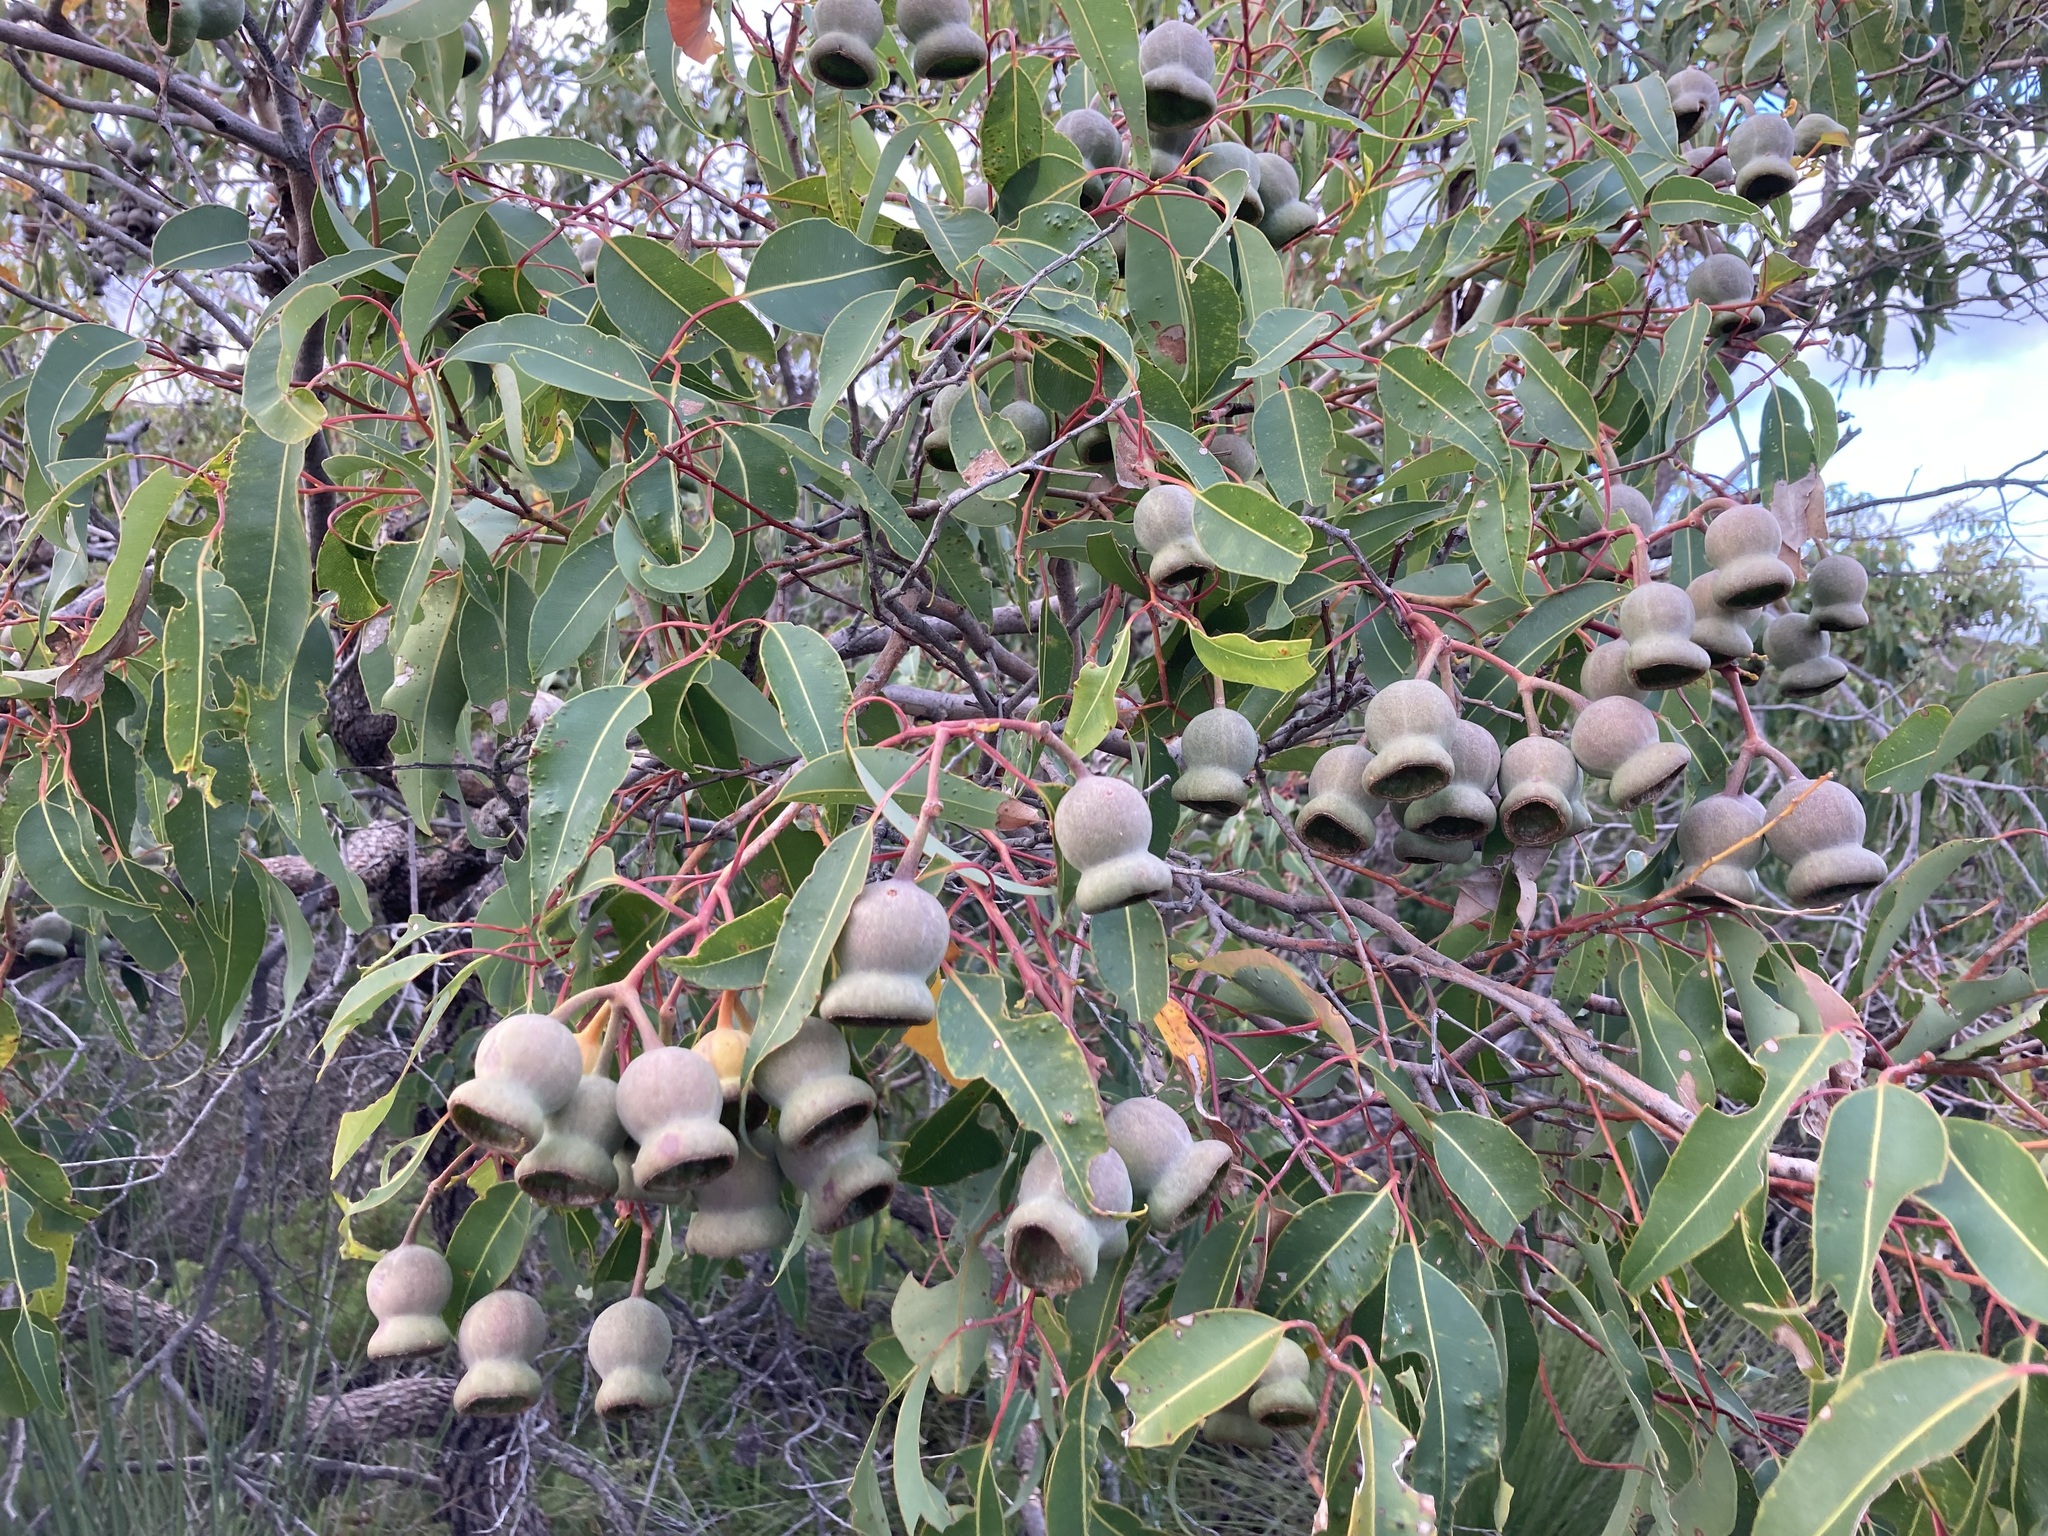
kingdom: Plantae
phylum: Tracheophyta
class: Magnoliopsida
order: Myrtales
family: Myrtaceae
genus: Corymbia
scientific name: Corymbia calophylla
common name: Marri
